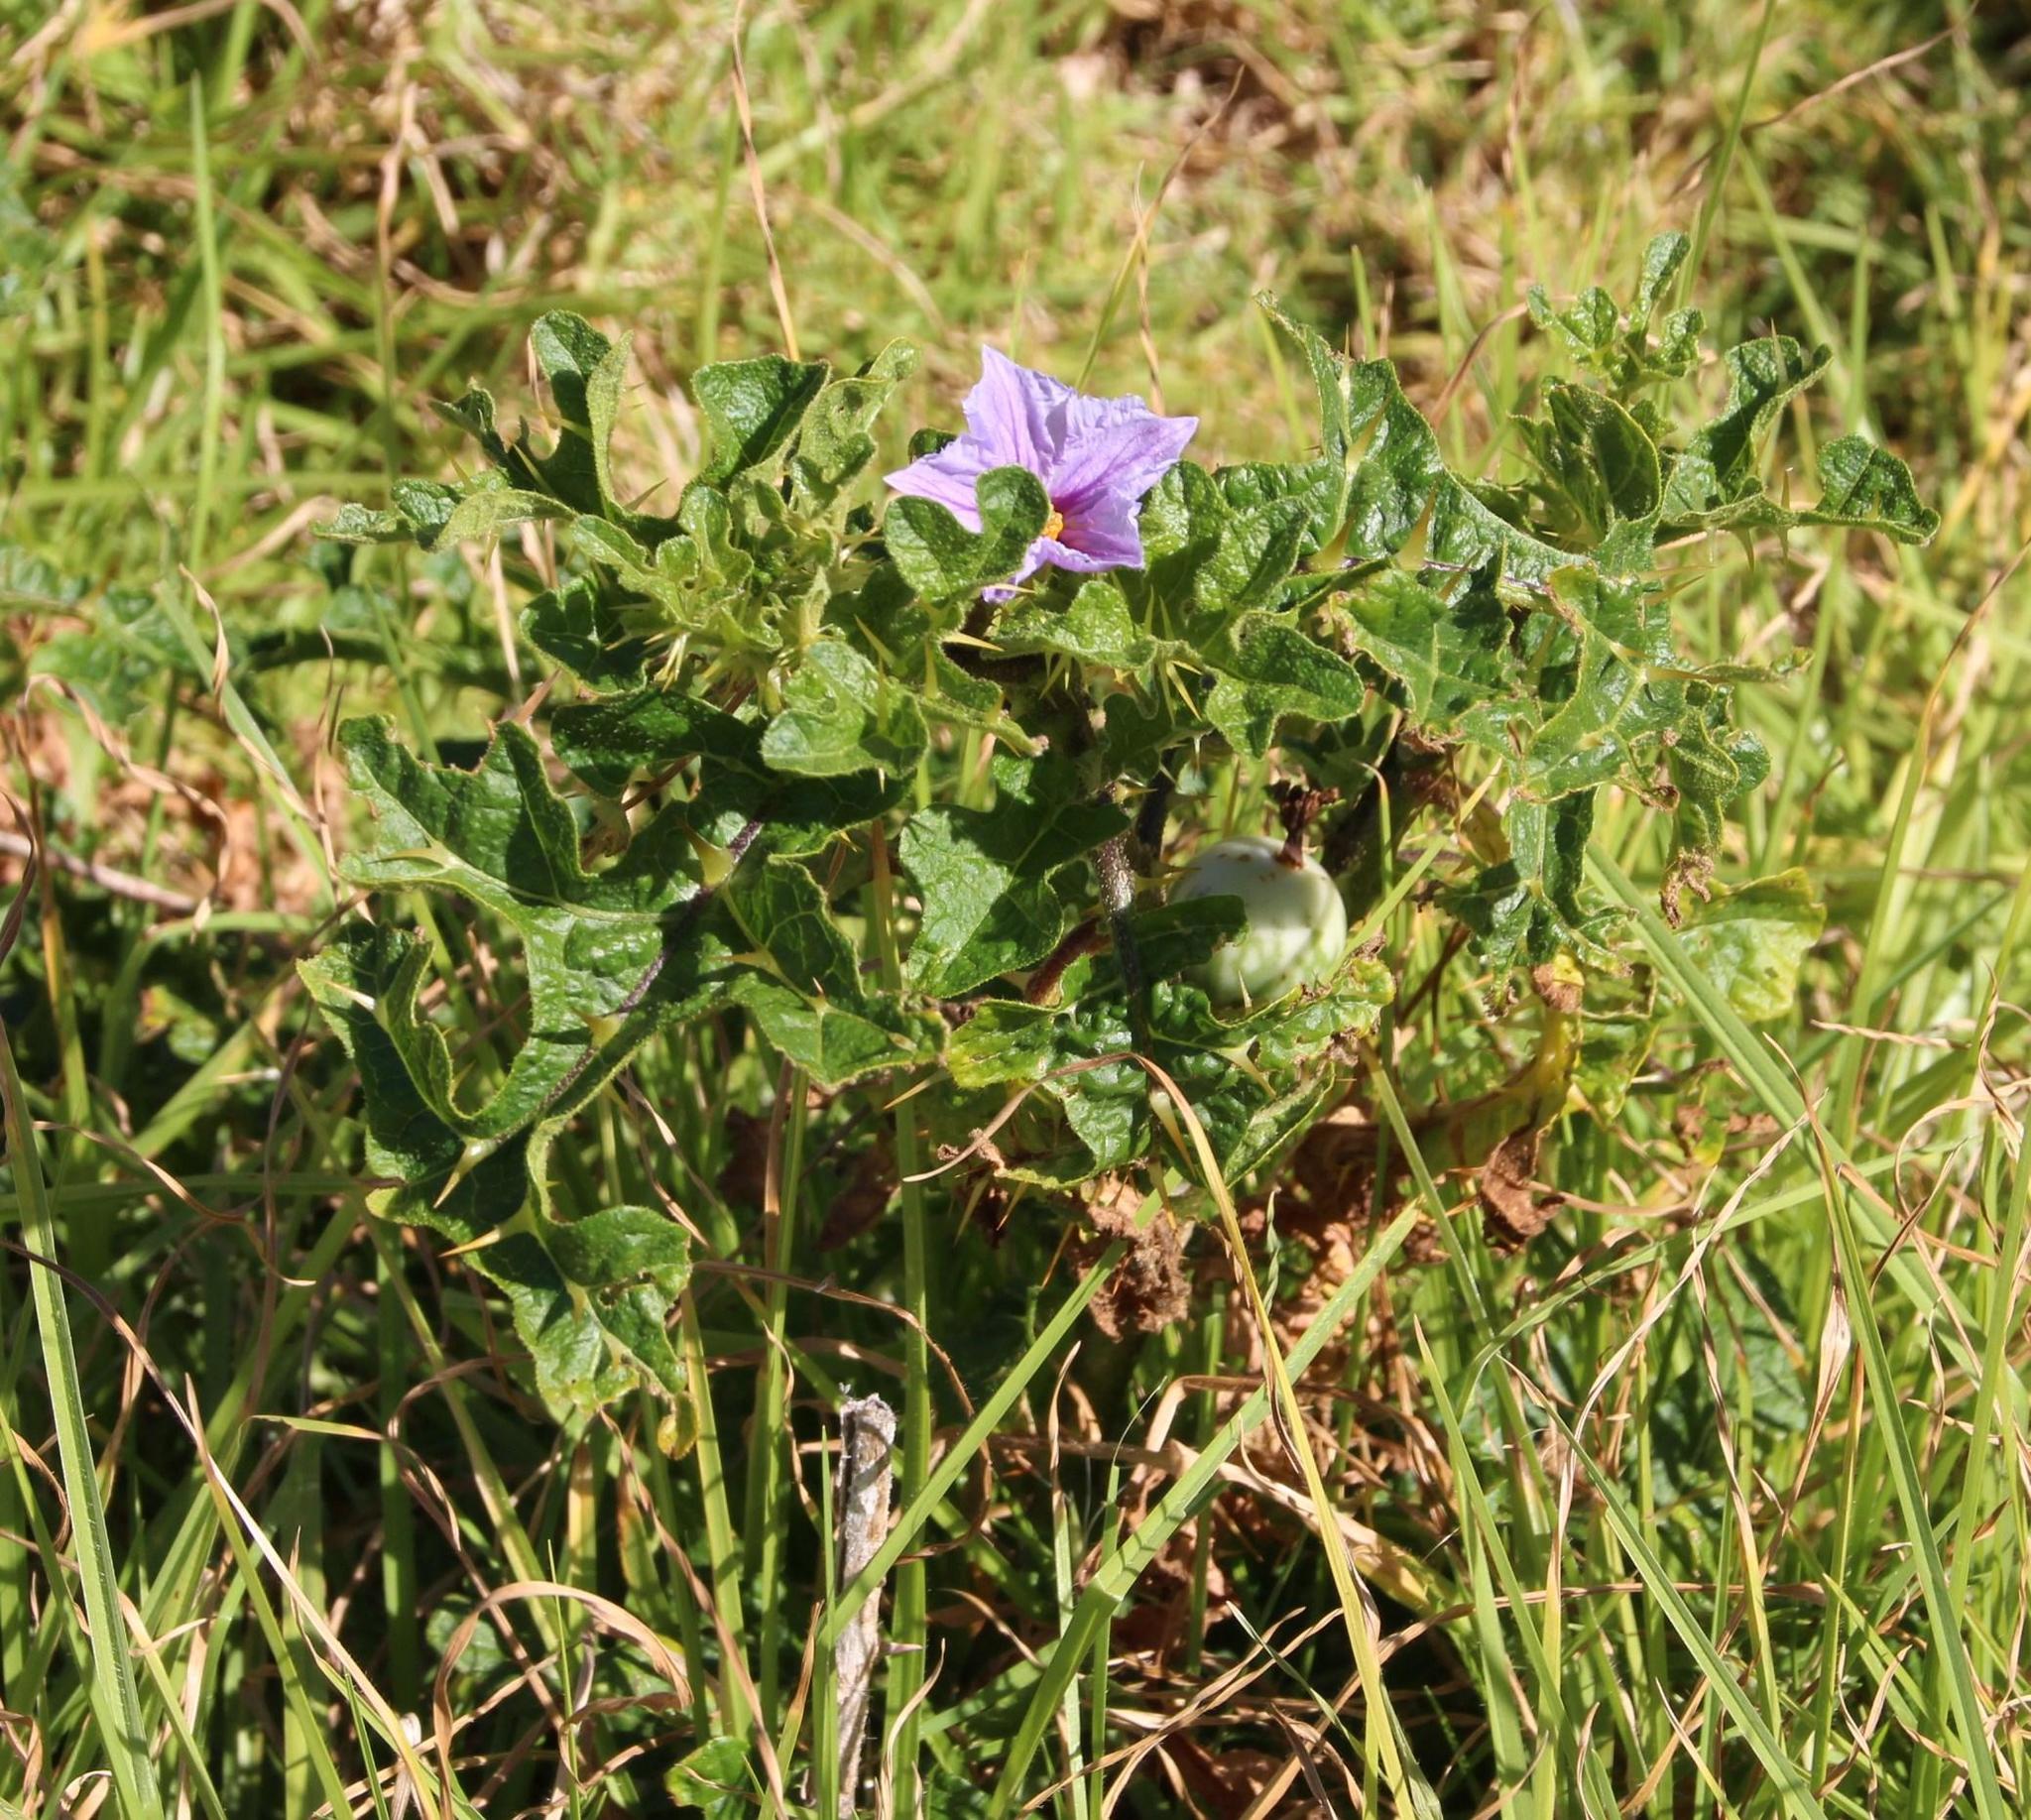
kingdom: Plantae
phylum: Tracheophyta
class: Magnoliopsida
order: Solanales
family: Solanaceae
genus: Solanum
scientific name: Solanum linnaeanum
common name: Nightshade
